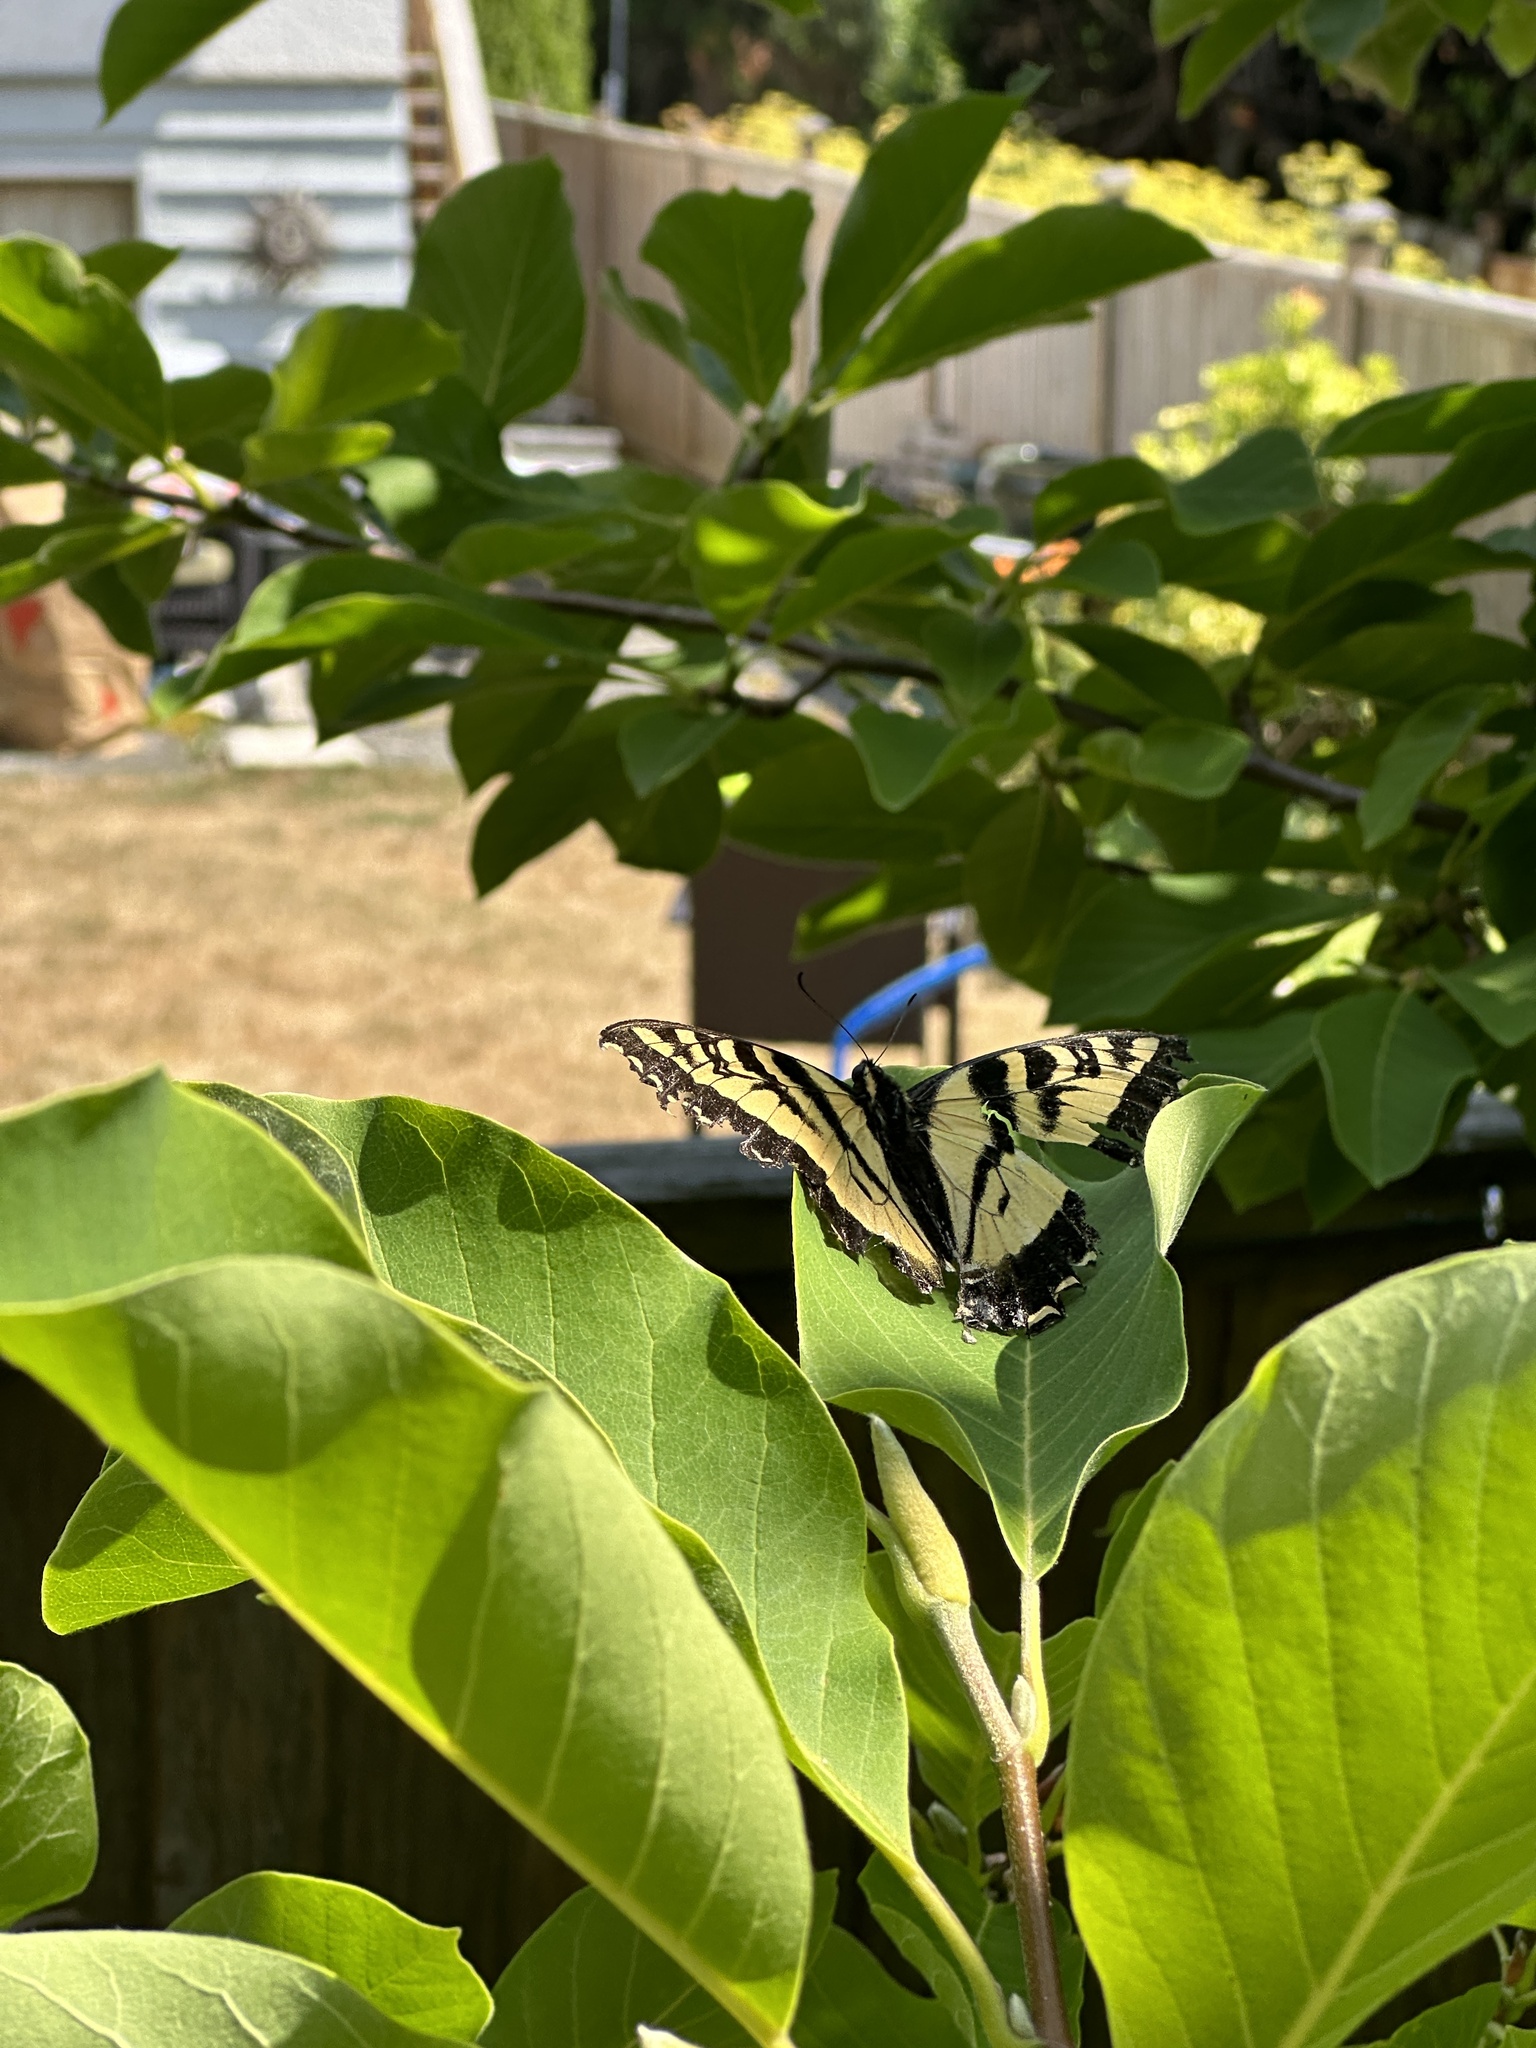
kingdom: Animalia
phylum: Arthropoda
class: Insecta
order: Lepidoptera
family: Papilionidae
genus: Papilio
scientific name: Papilio rutulus
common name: Western tiger swallowtail
